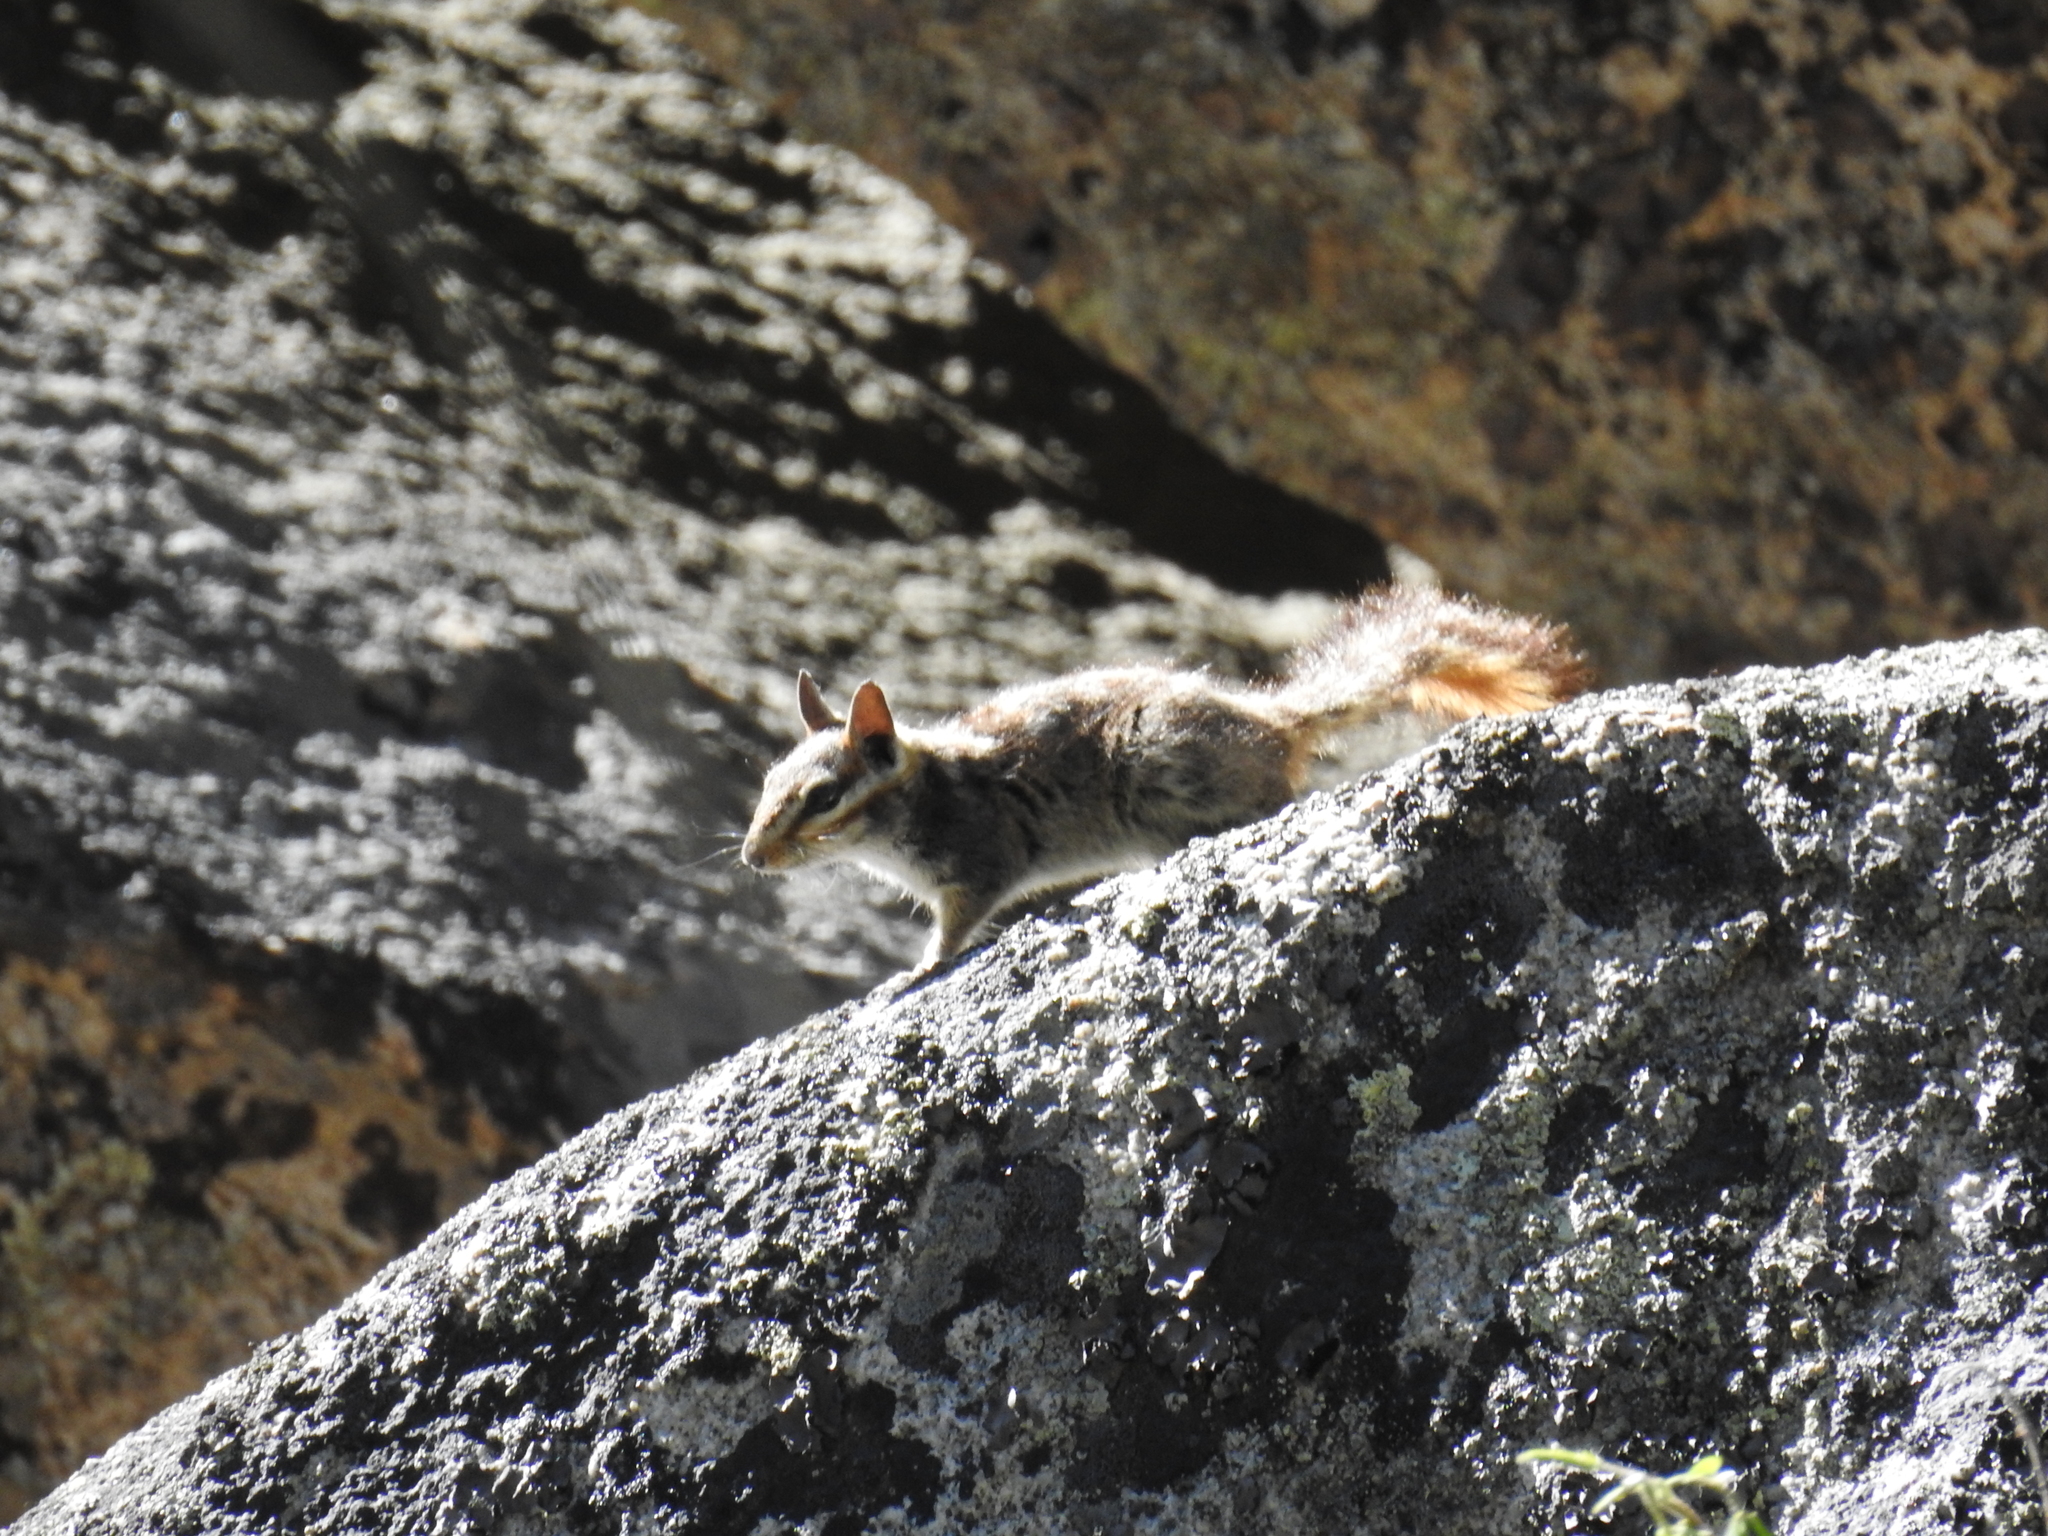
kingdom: Animalia
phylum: Chordata
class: Mammalia
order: Rodentia
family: Sciuridae
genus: Tamias
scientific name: Tamias obscurus
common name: California chipmunk
